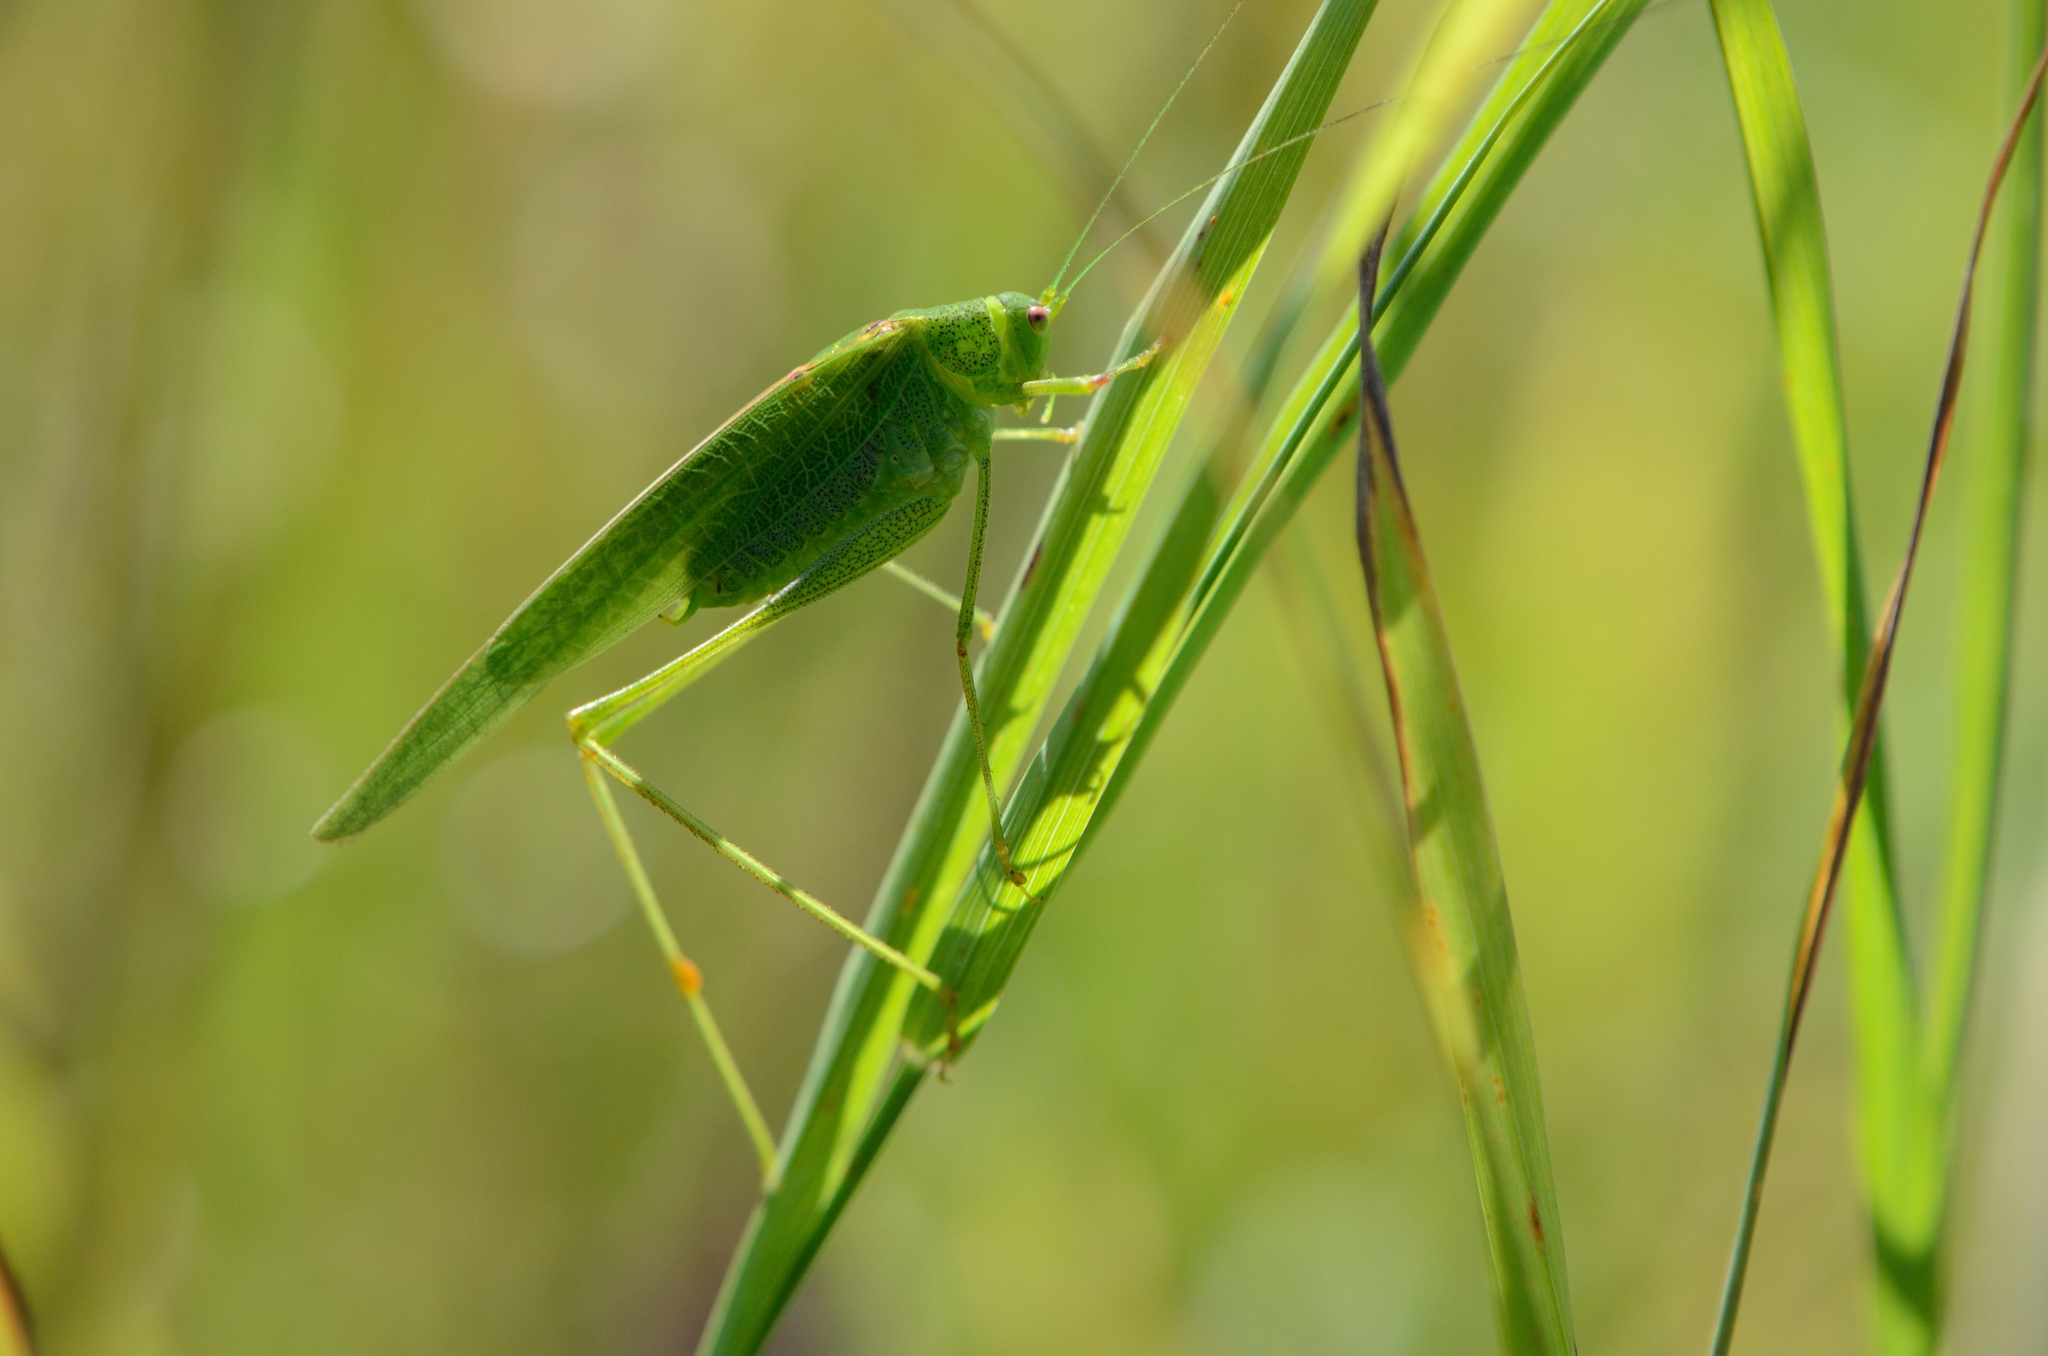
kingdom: Animalia
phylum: Arthropoda
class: Insecta
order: Orthoptera
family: Tettigoniidae
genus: Phaneroptera
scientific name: Phaneroptera nana
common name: Southern sickle bush-cricket
